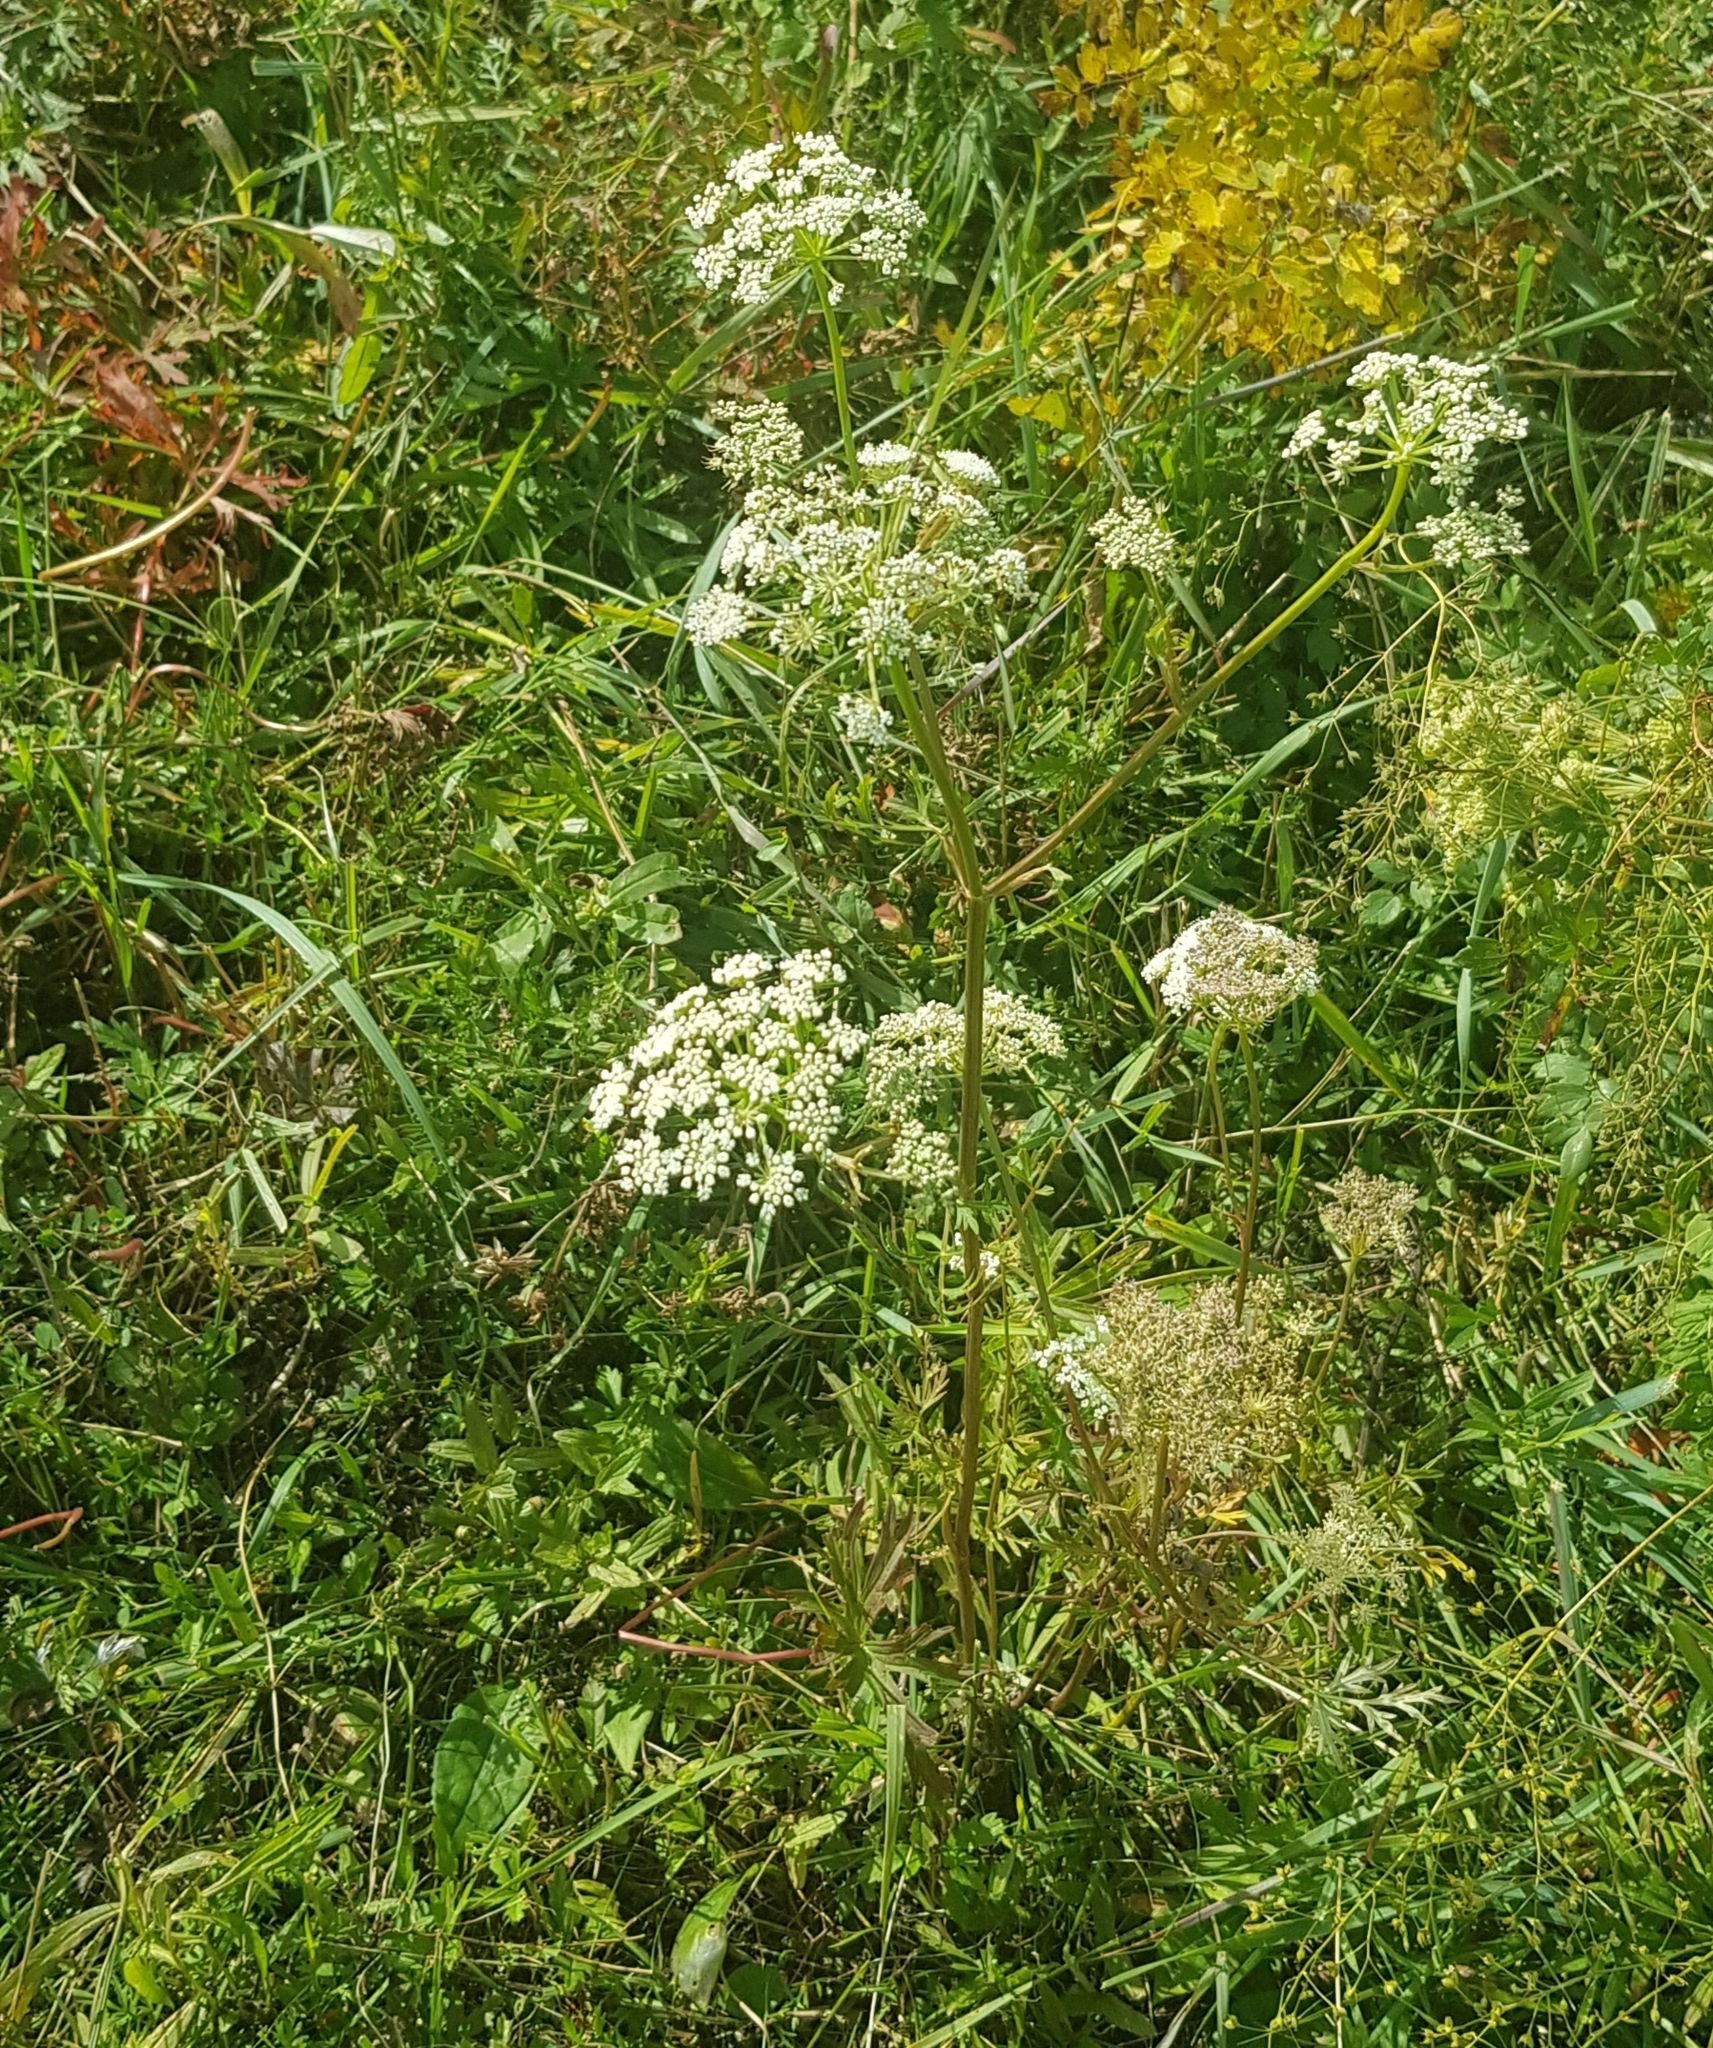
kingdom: Plantae
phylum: Tracheophyta
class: Magnoliopsida
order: Apiales
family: Apiaceae
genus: Cenolophium
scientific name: Cenolophium fischeri
